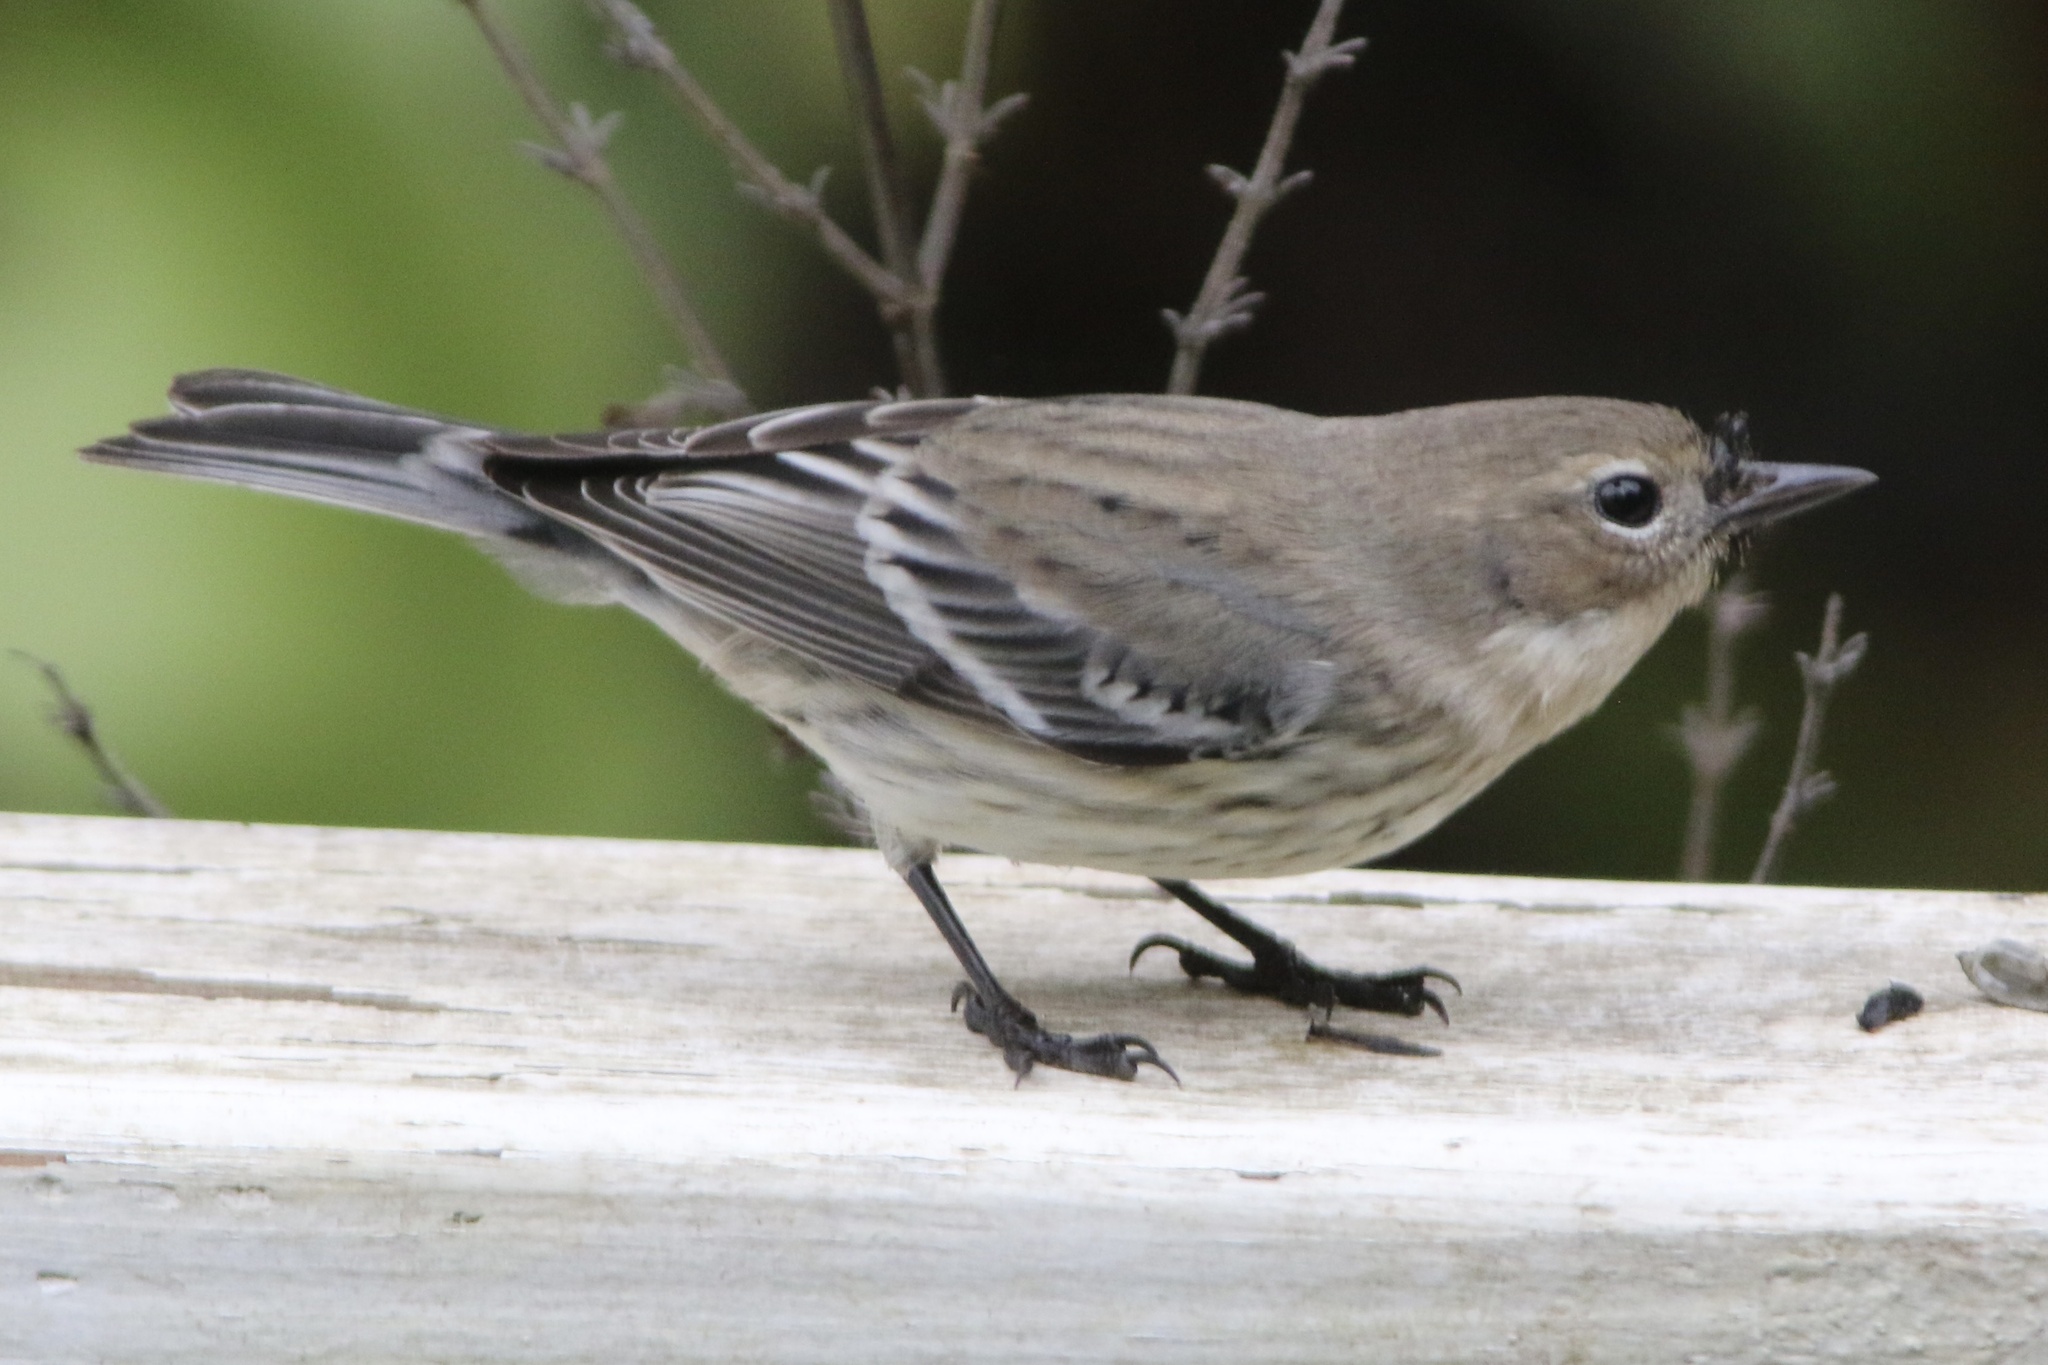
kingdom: Animalia
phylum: Chordata
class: Aves
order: Passeriformes
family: Parulidae
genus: Setophaga
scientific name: Setophaga coronata
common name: Myrtle warbler
